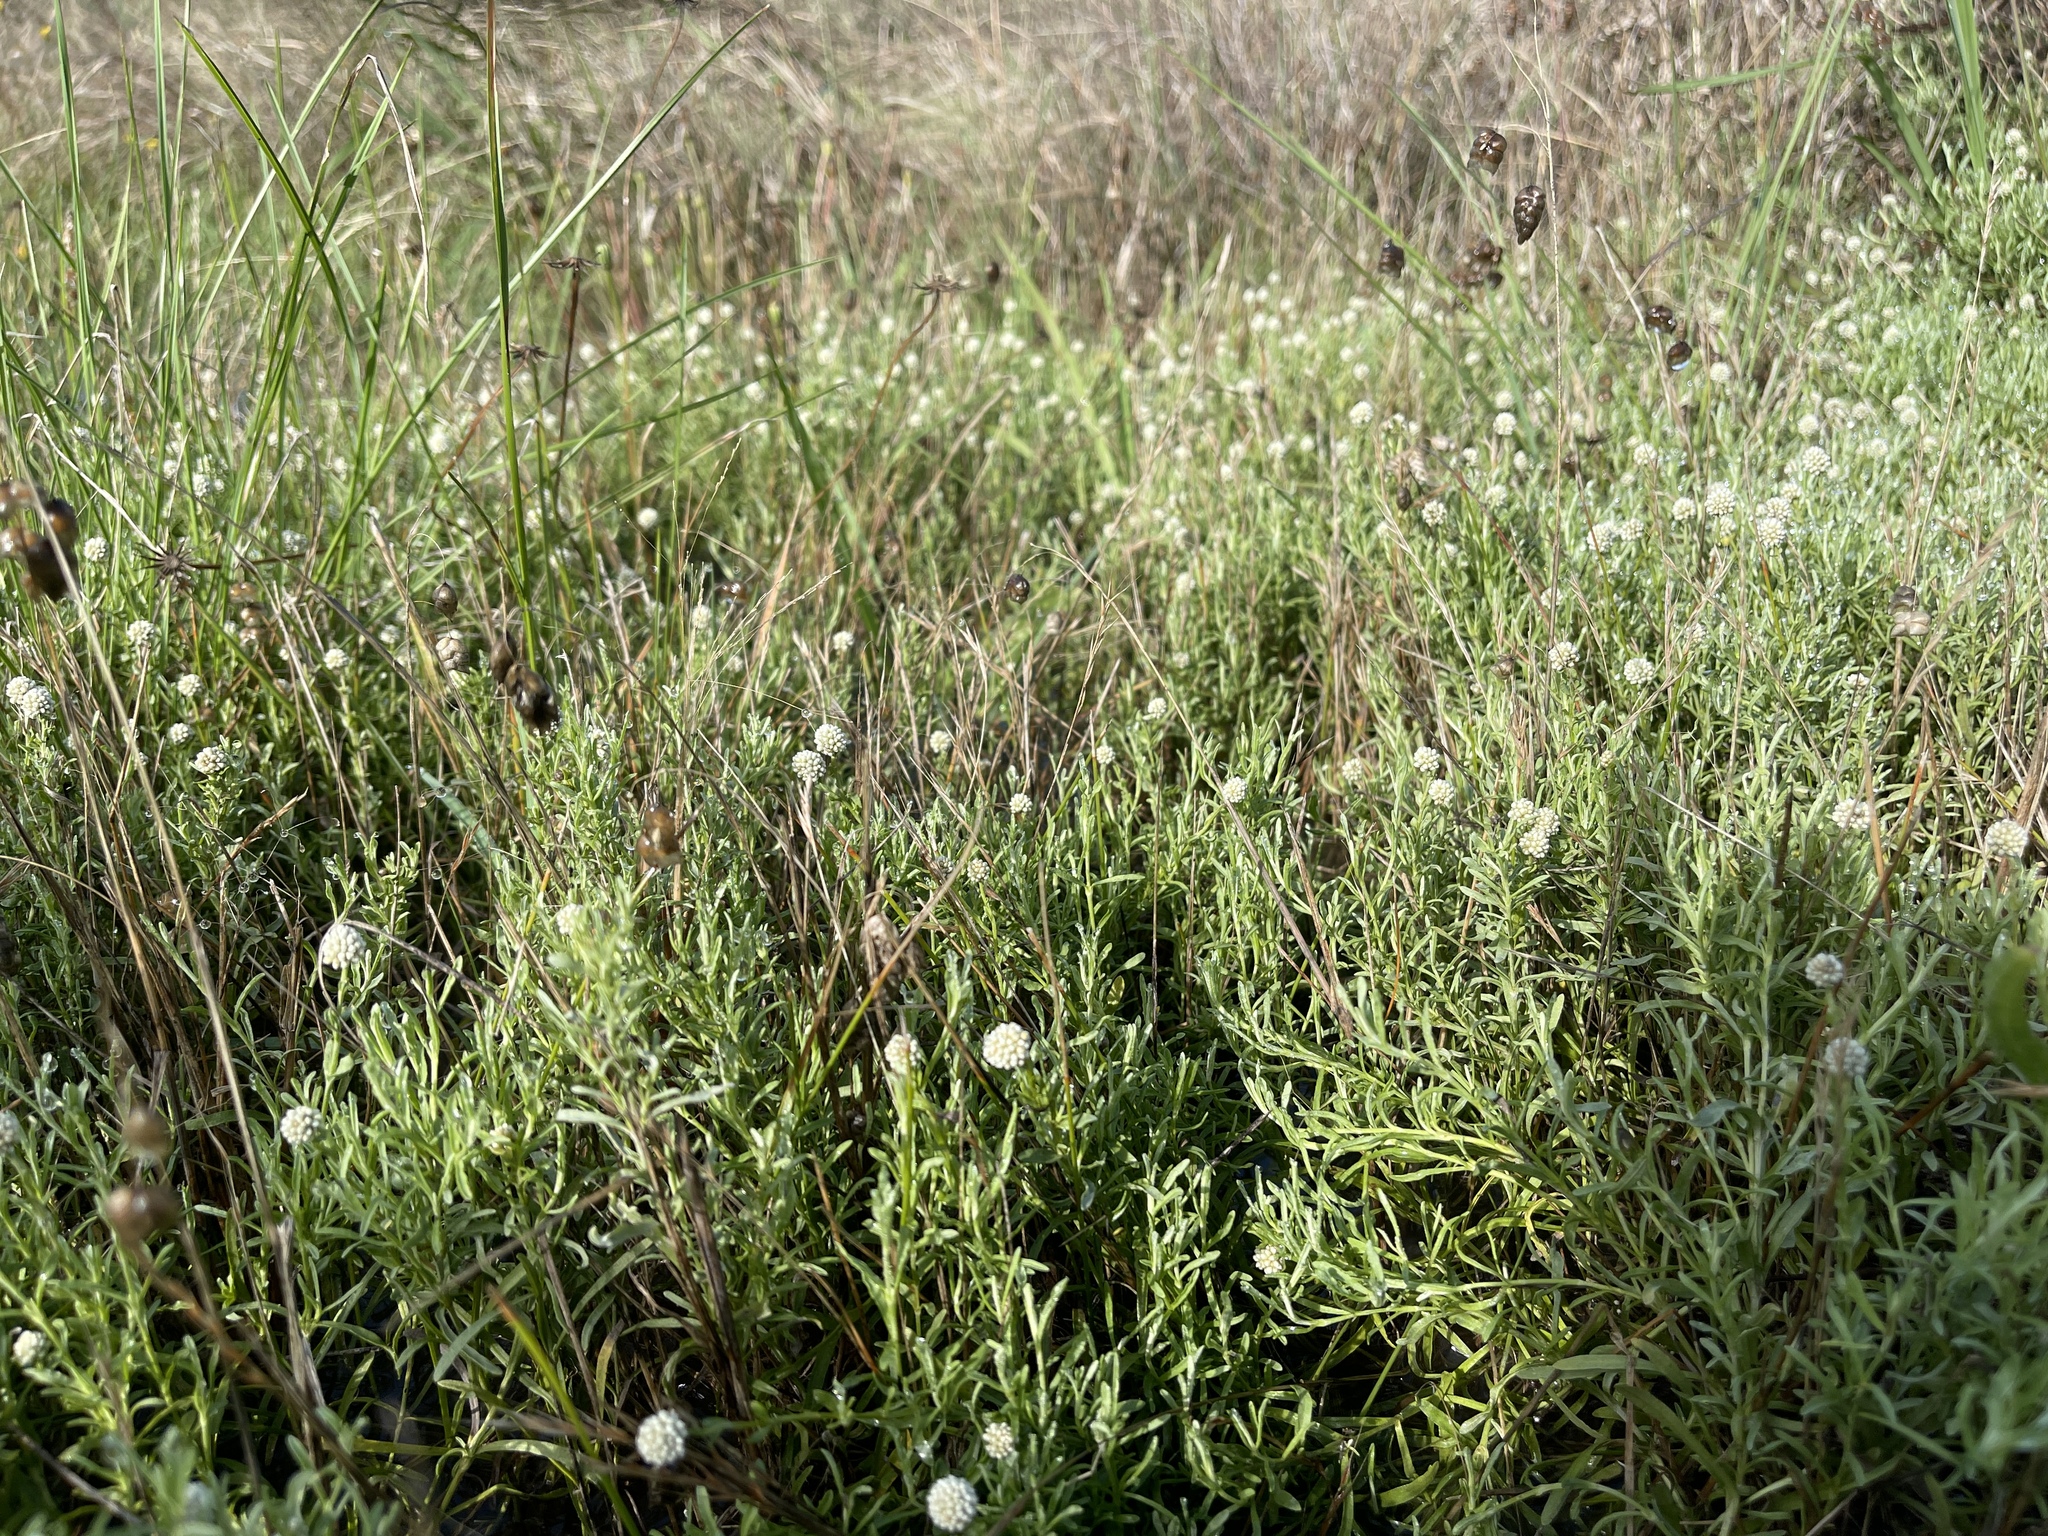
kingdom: Plantae
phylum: Tracheophyta
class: Magnoliopsida
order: Asterales
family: Asteraceae
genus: Calocephalus
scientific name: Calocephalus lacteus
